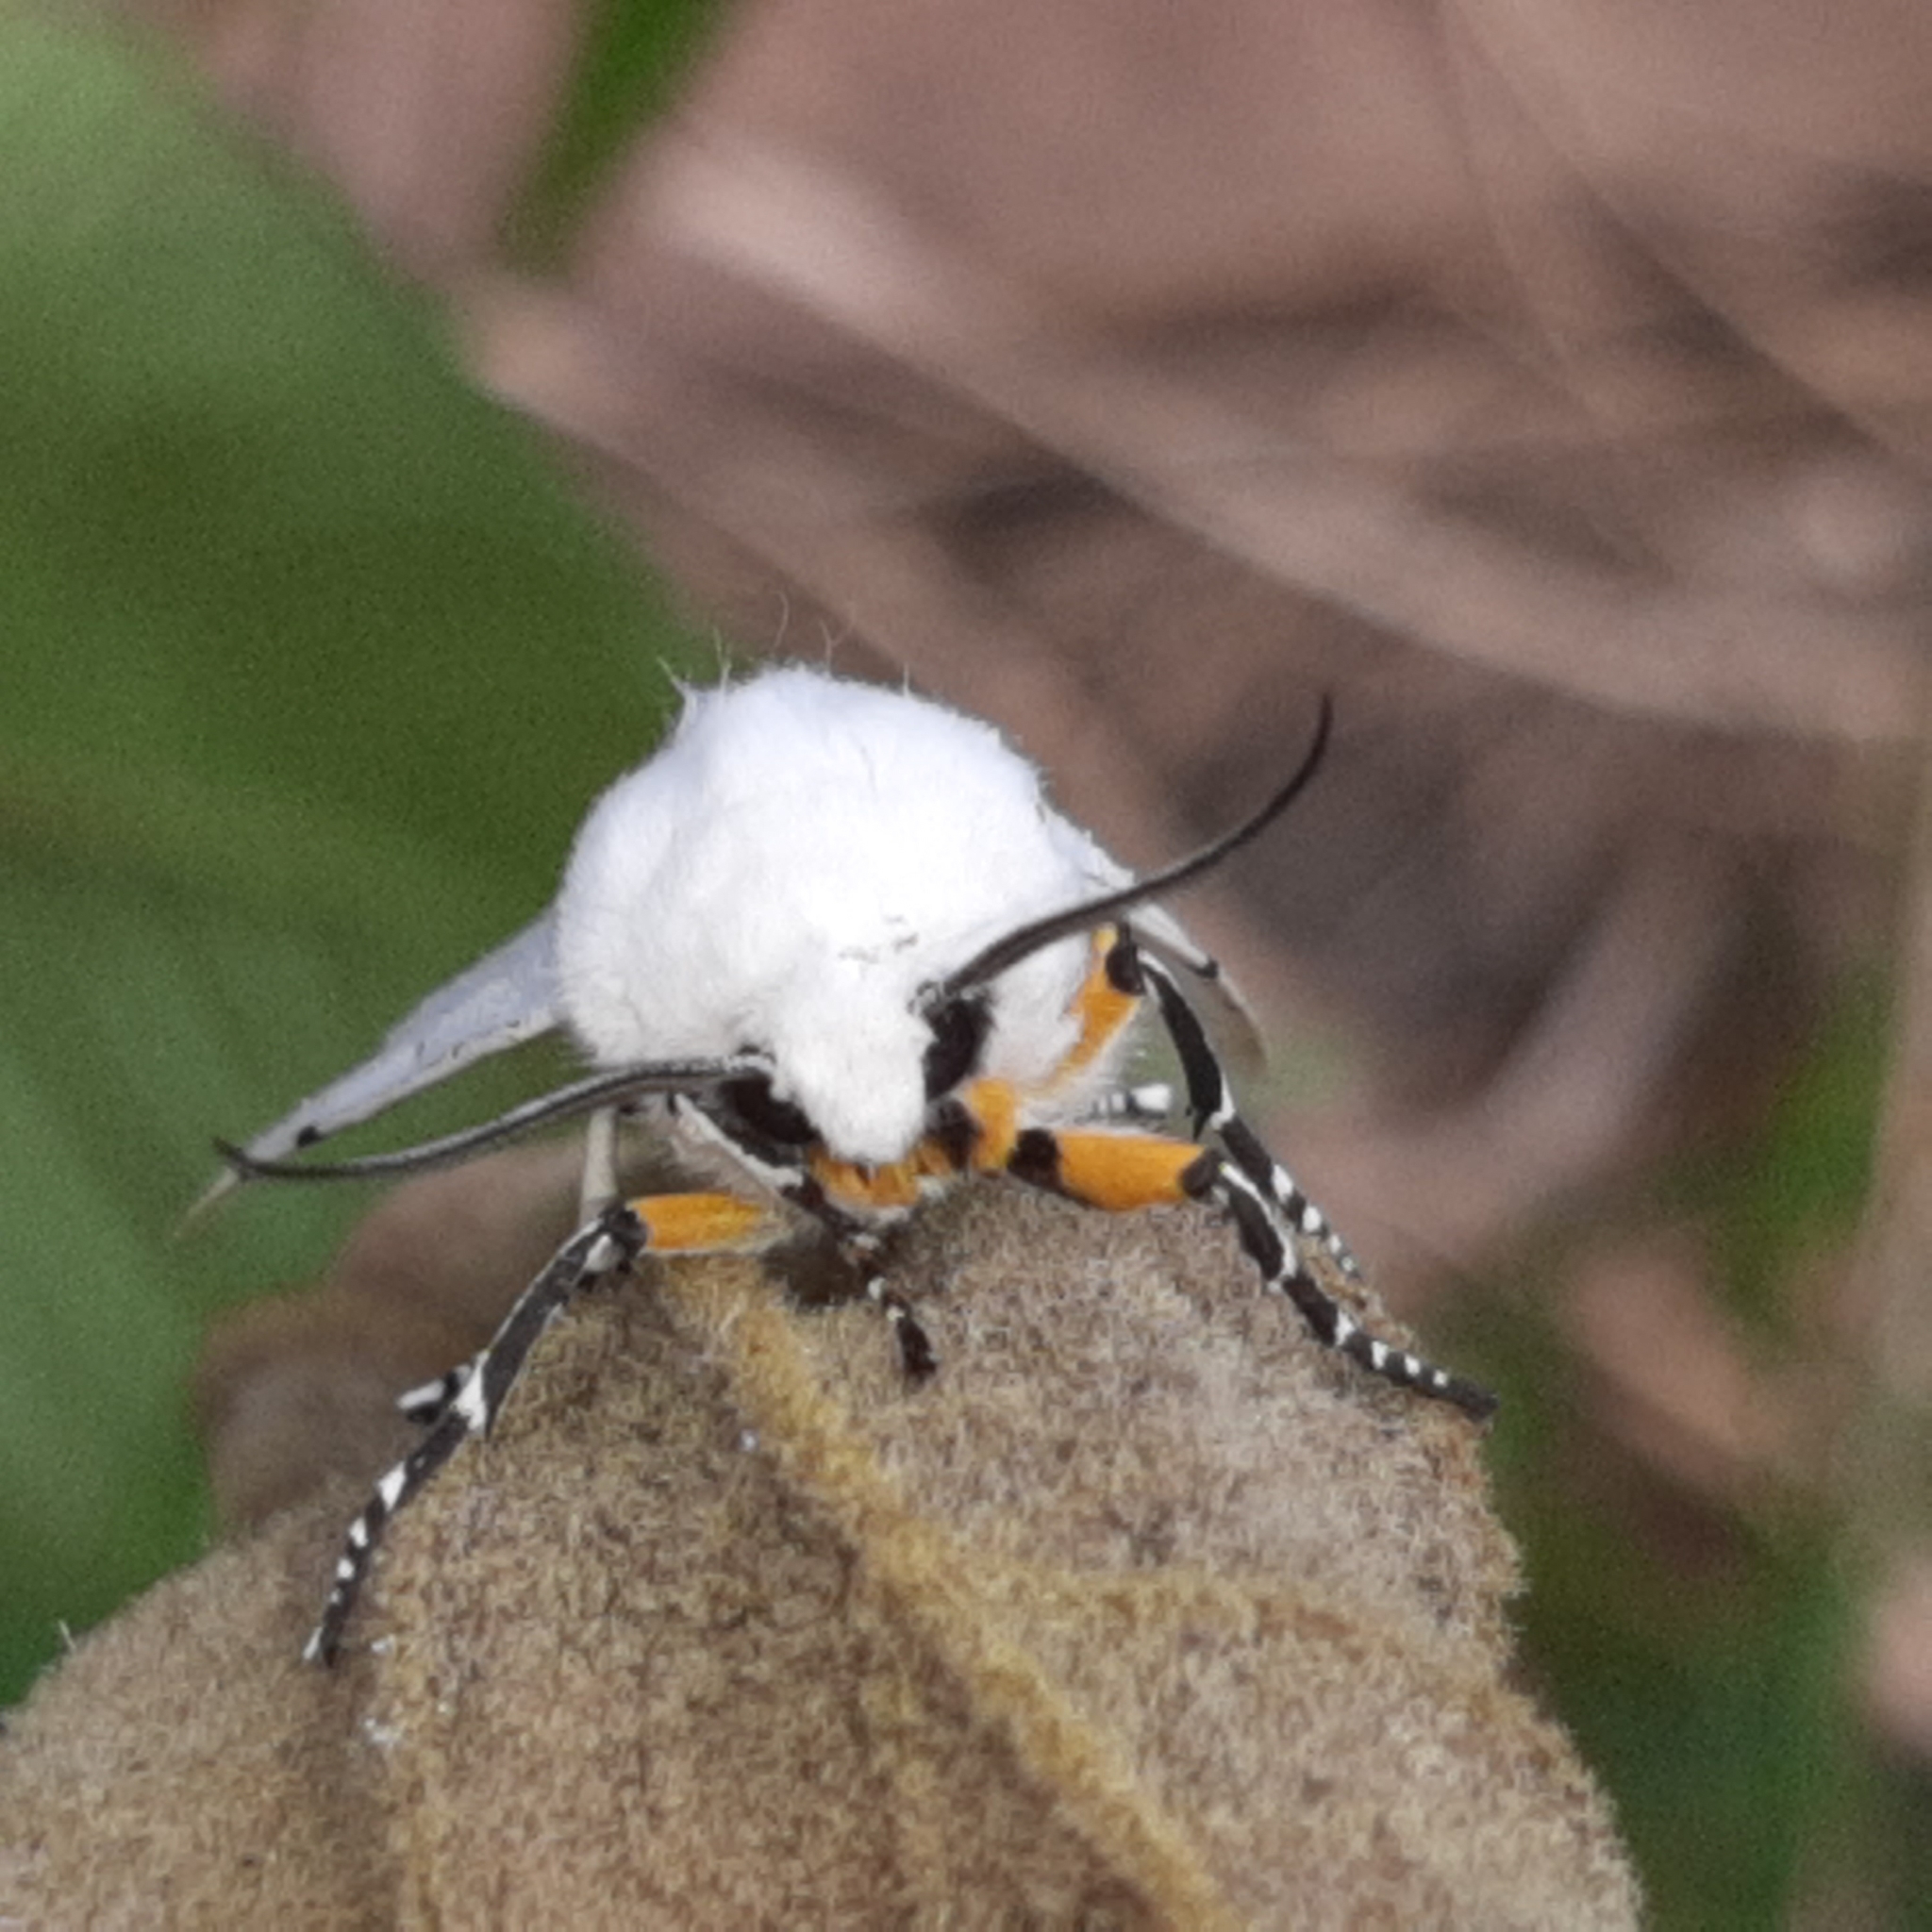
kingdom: Animalia
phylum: Arthropoda
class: Insecta
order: Lepidoptera
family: Erebidae
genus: Estigmene
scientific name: Estigmene albida
